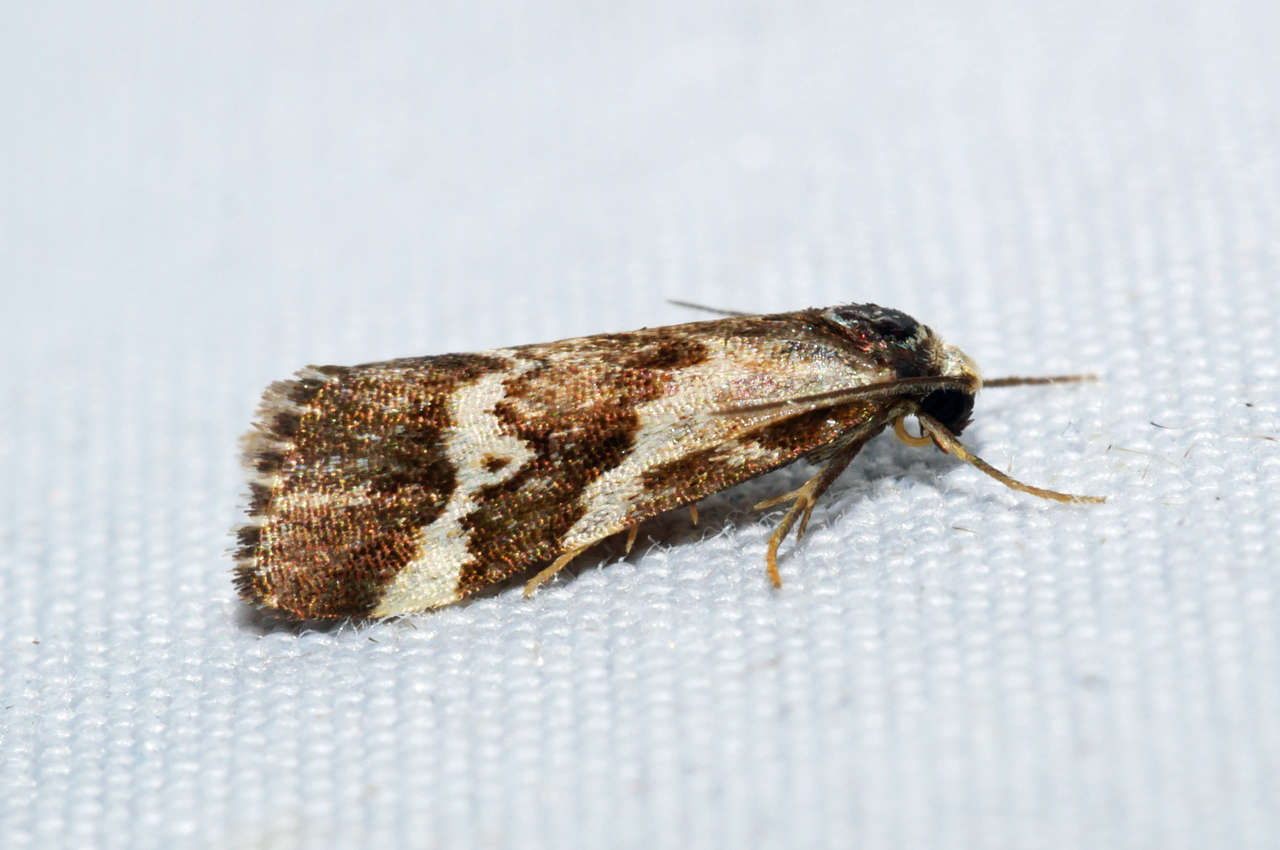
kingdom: Animalia
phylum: Arthropoda
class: Insecta
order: Lepidoptera
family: Erebidae
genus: Damias
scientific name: Damias procrena
